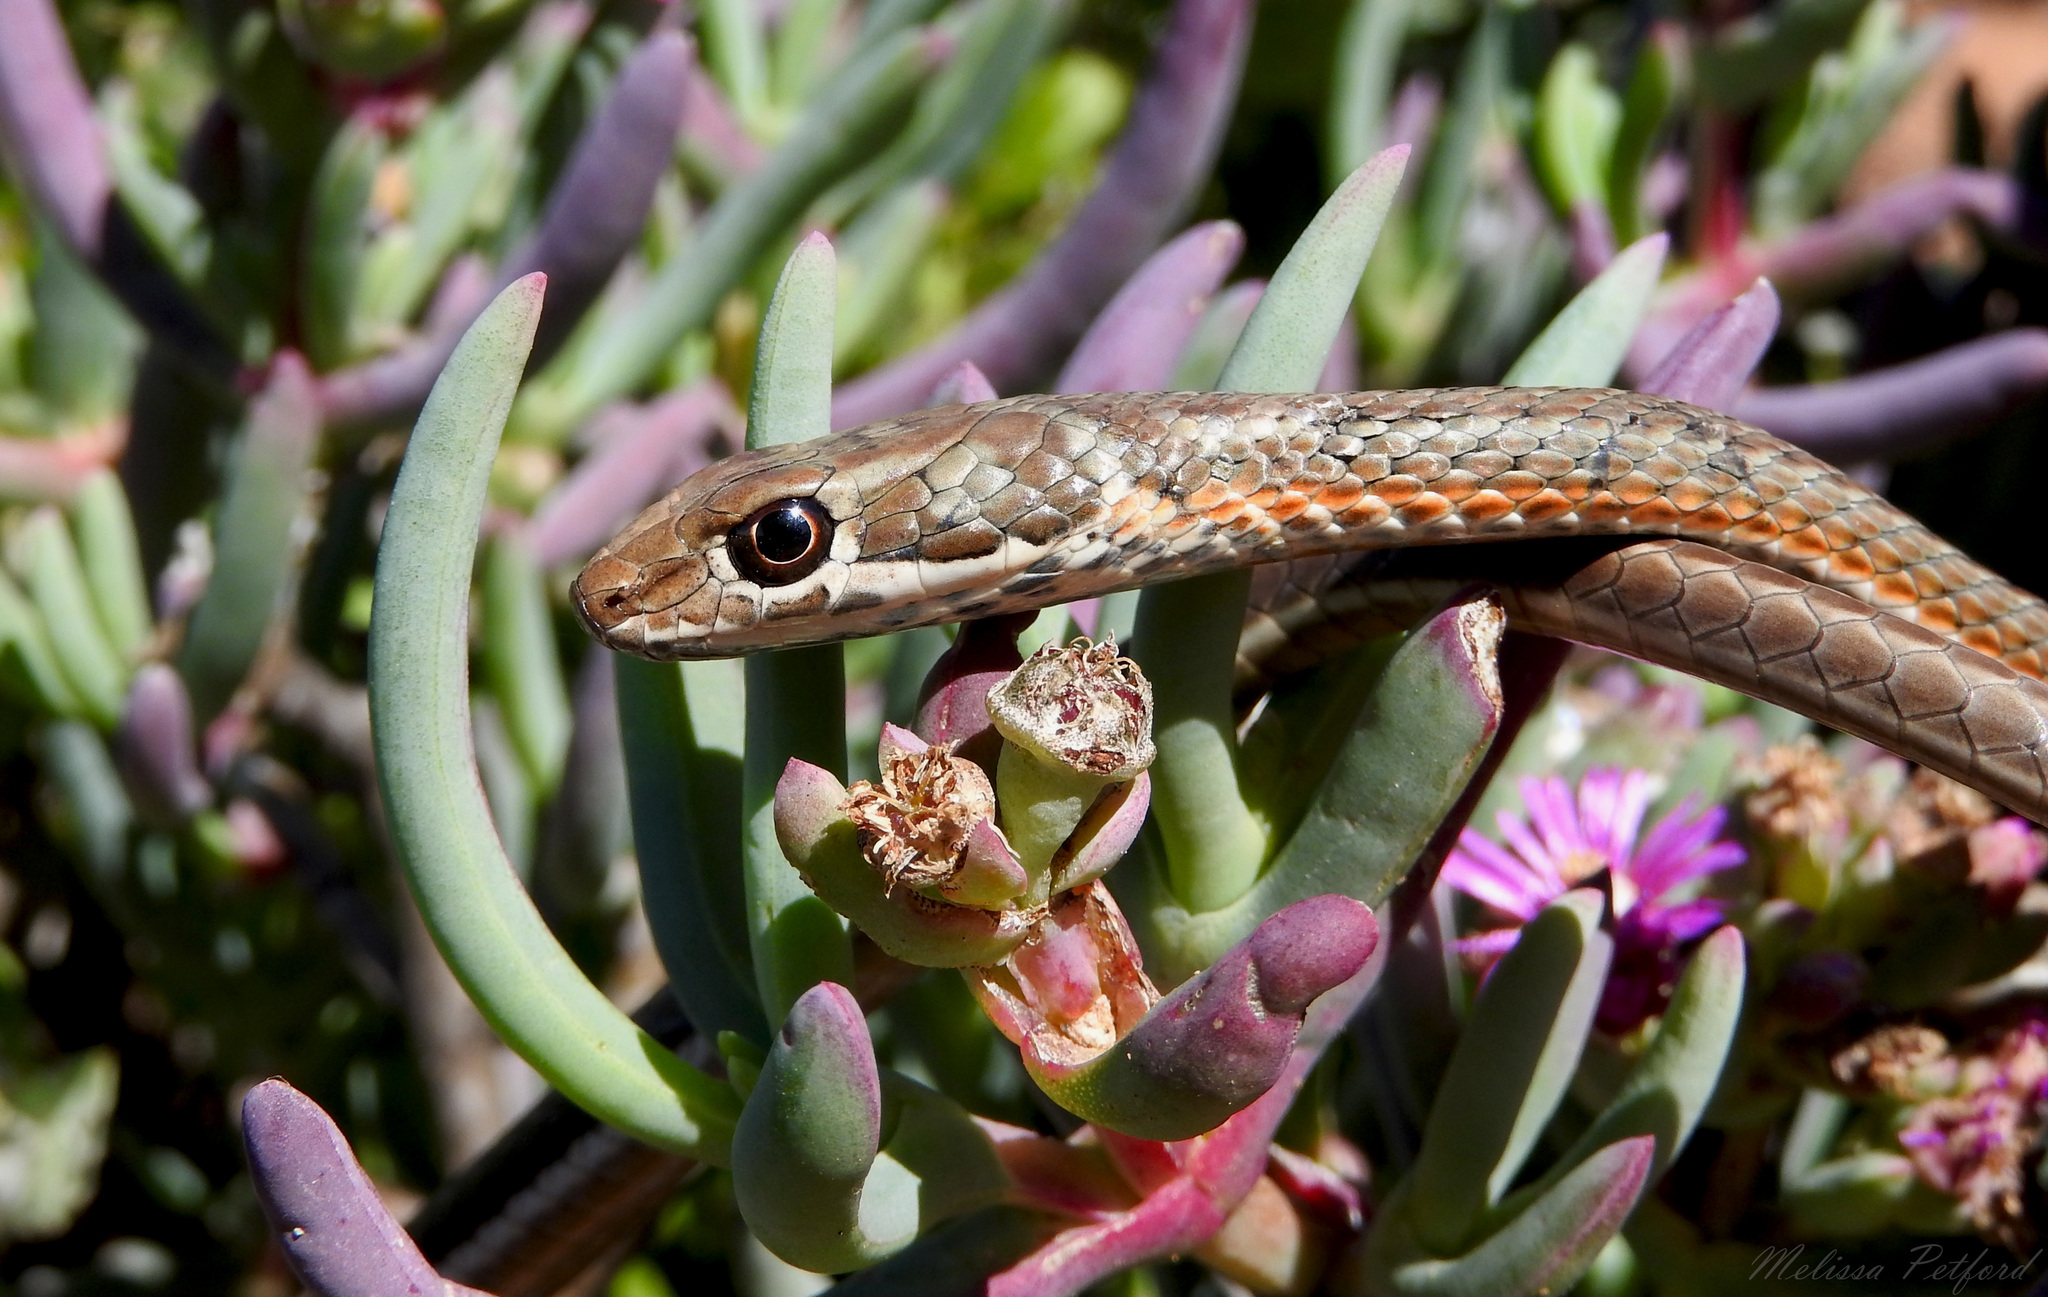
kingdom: Animalia
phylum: Chordata
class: Squamata
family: Psammophiidae
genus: Psammophis
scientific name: Psammophis notostictus
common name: Karoo sand snake
